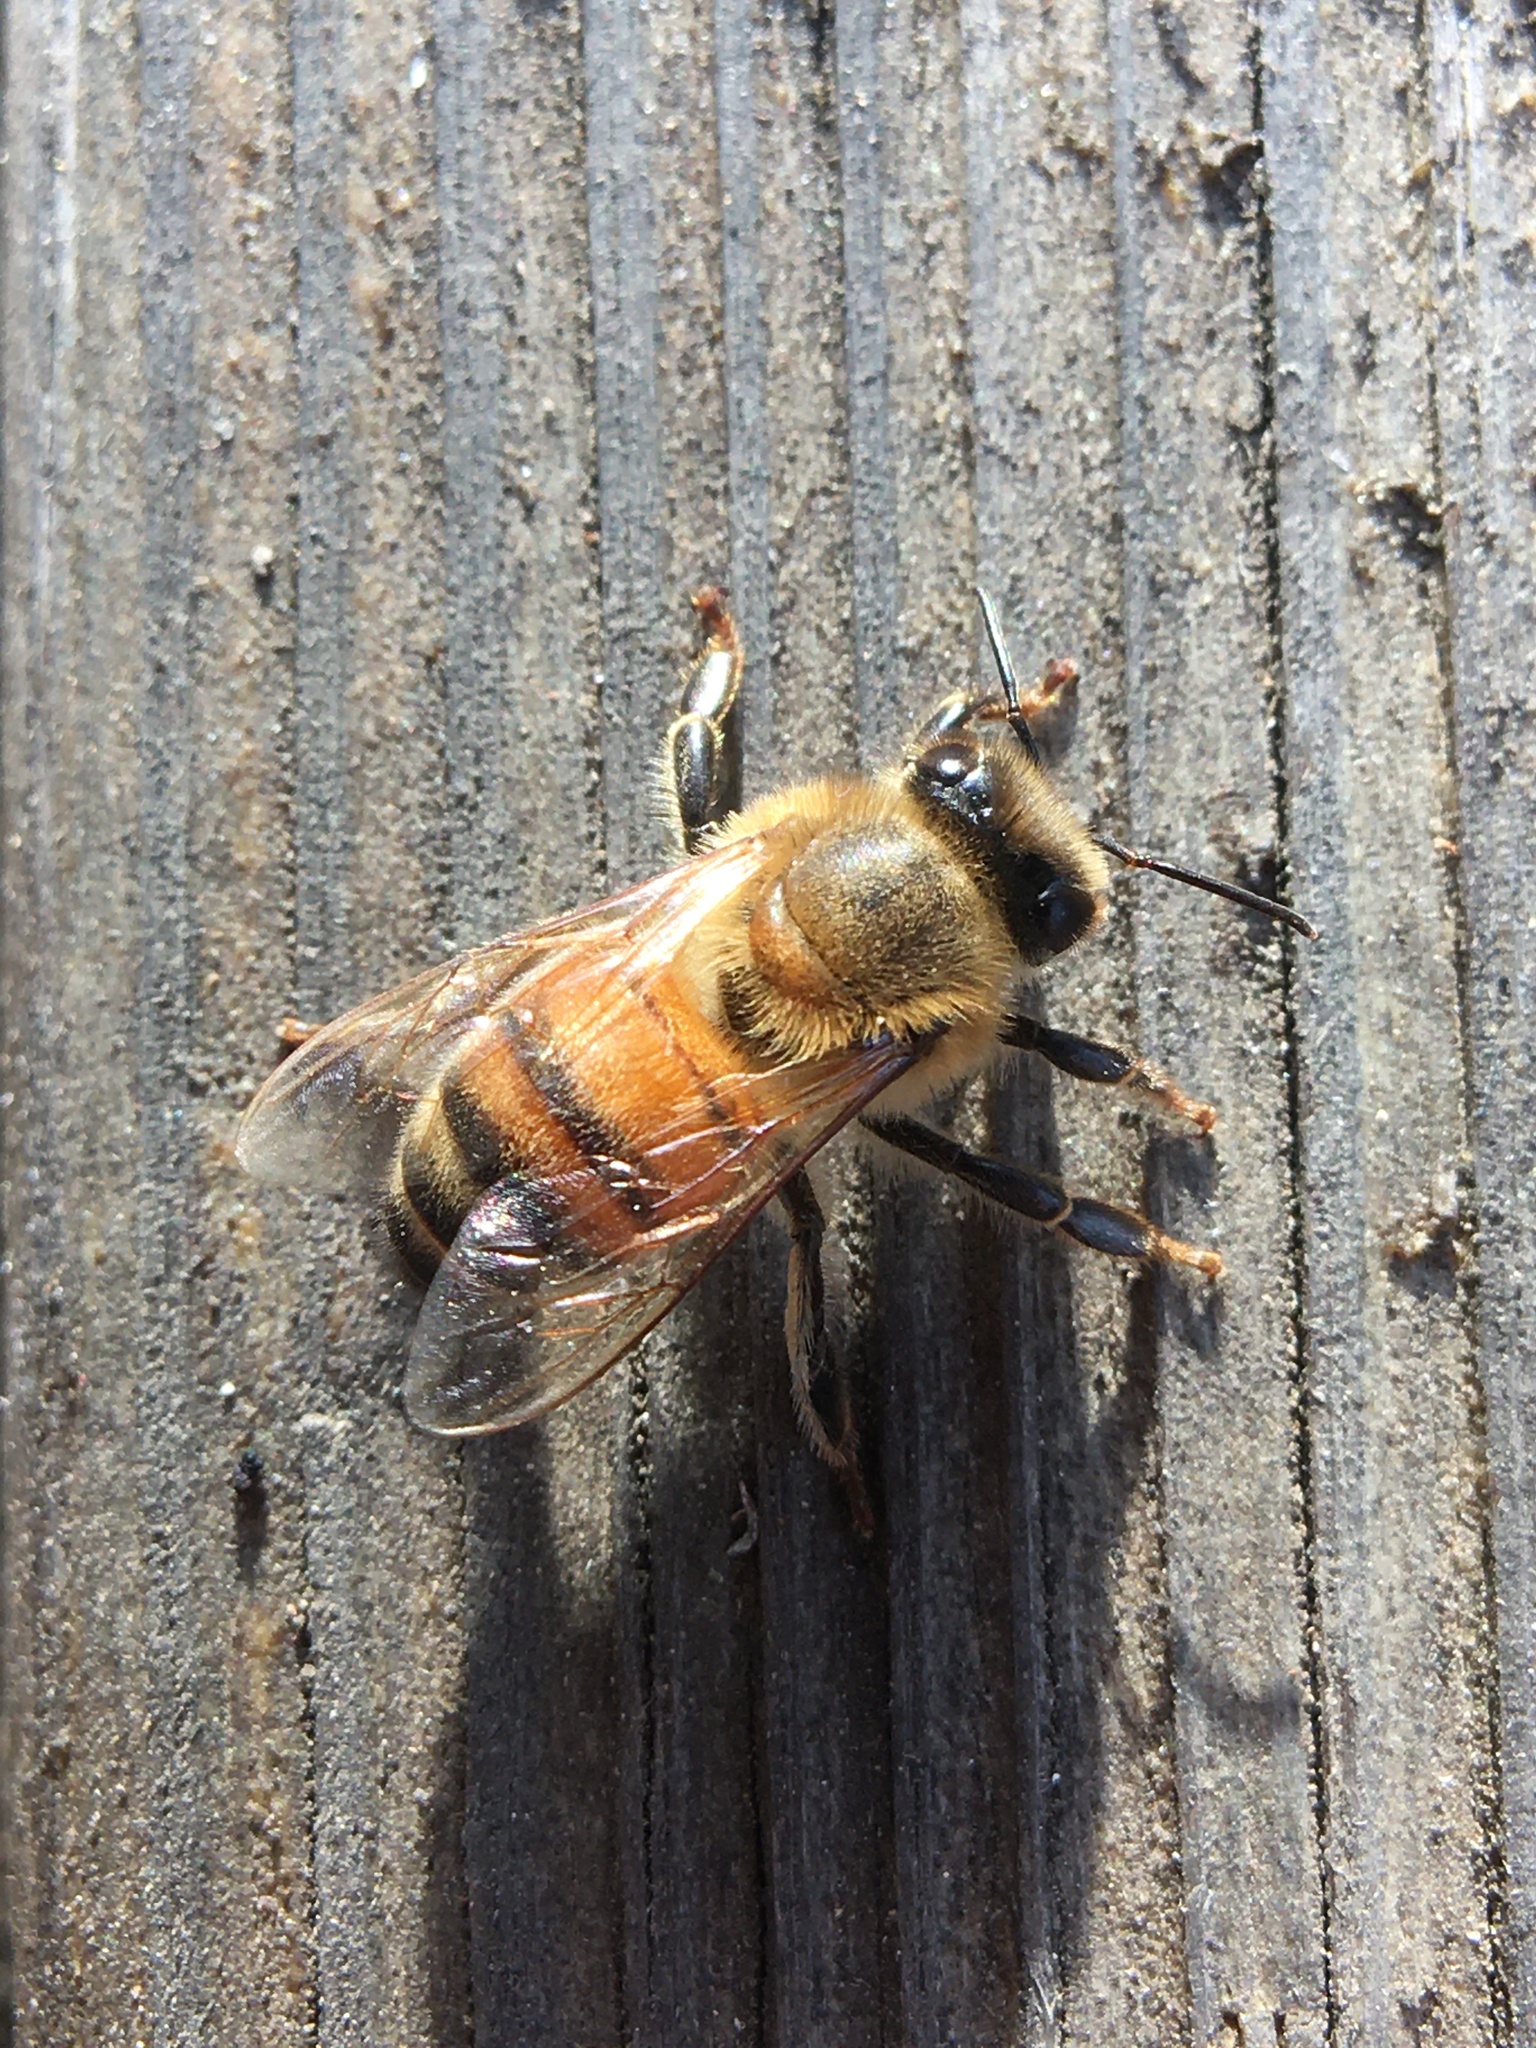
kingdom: Animalia
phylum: Arthropoda
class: Insecta
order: Hymenoptera
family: Apidae
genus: Apis
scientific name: Apis mellifera
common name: Honey bee
